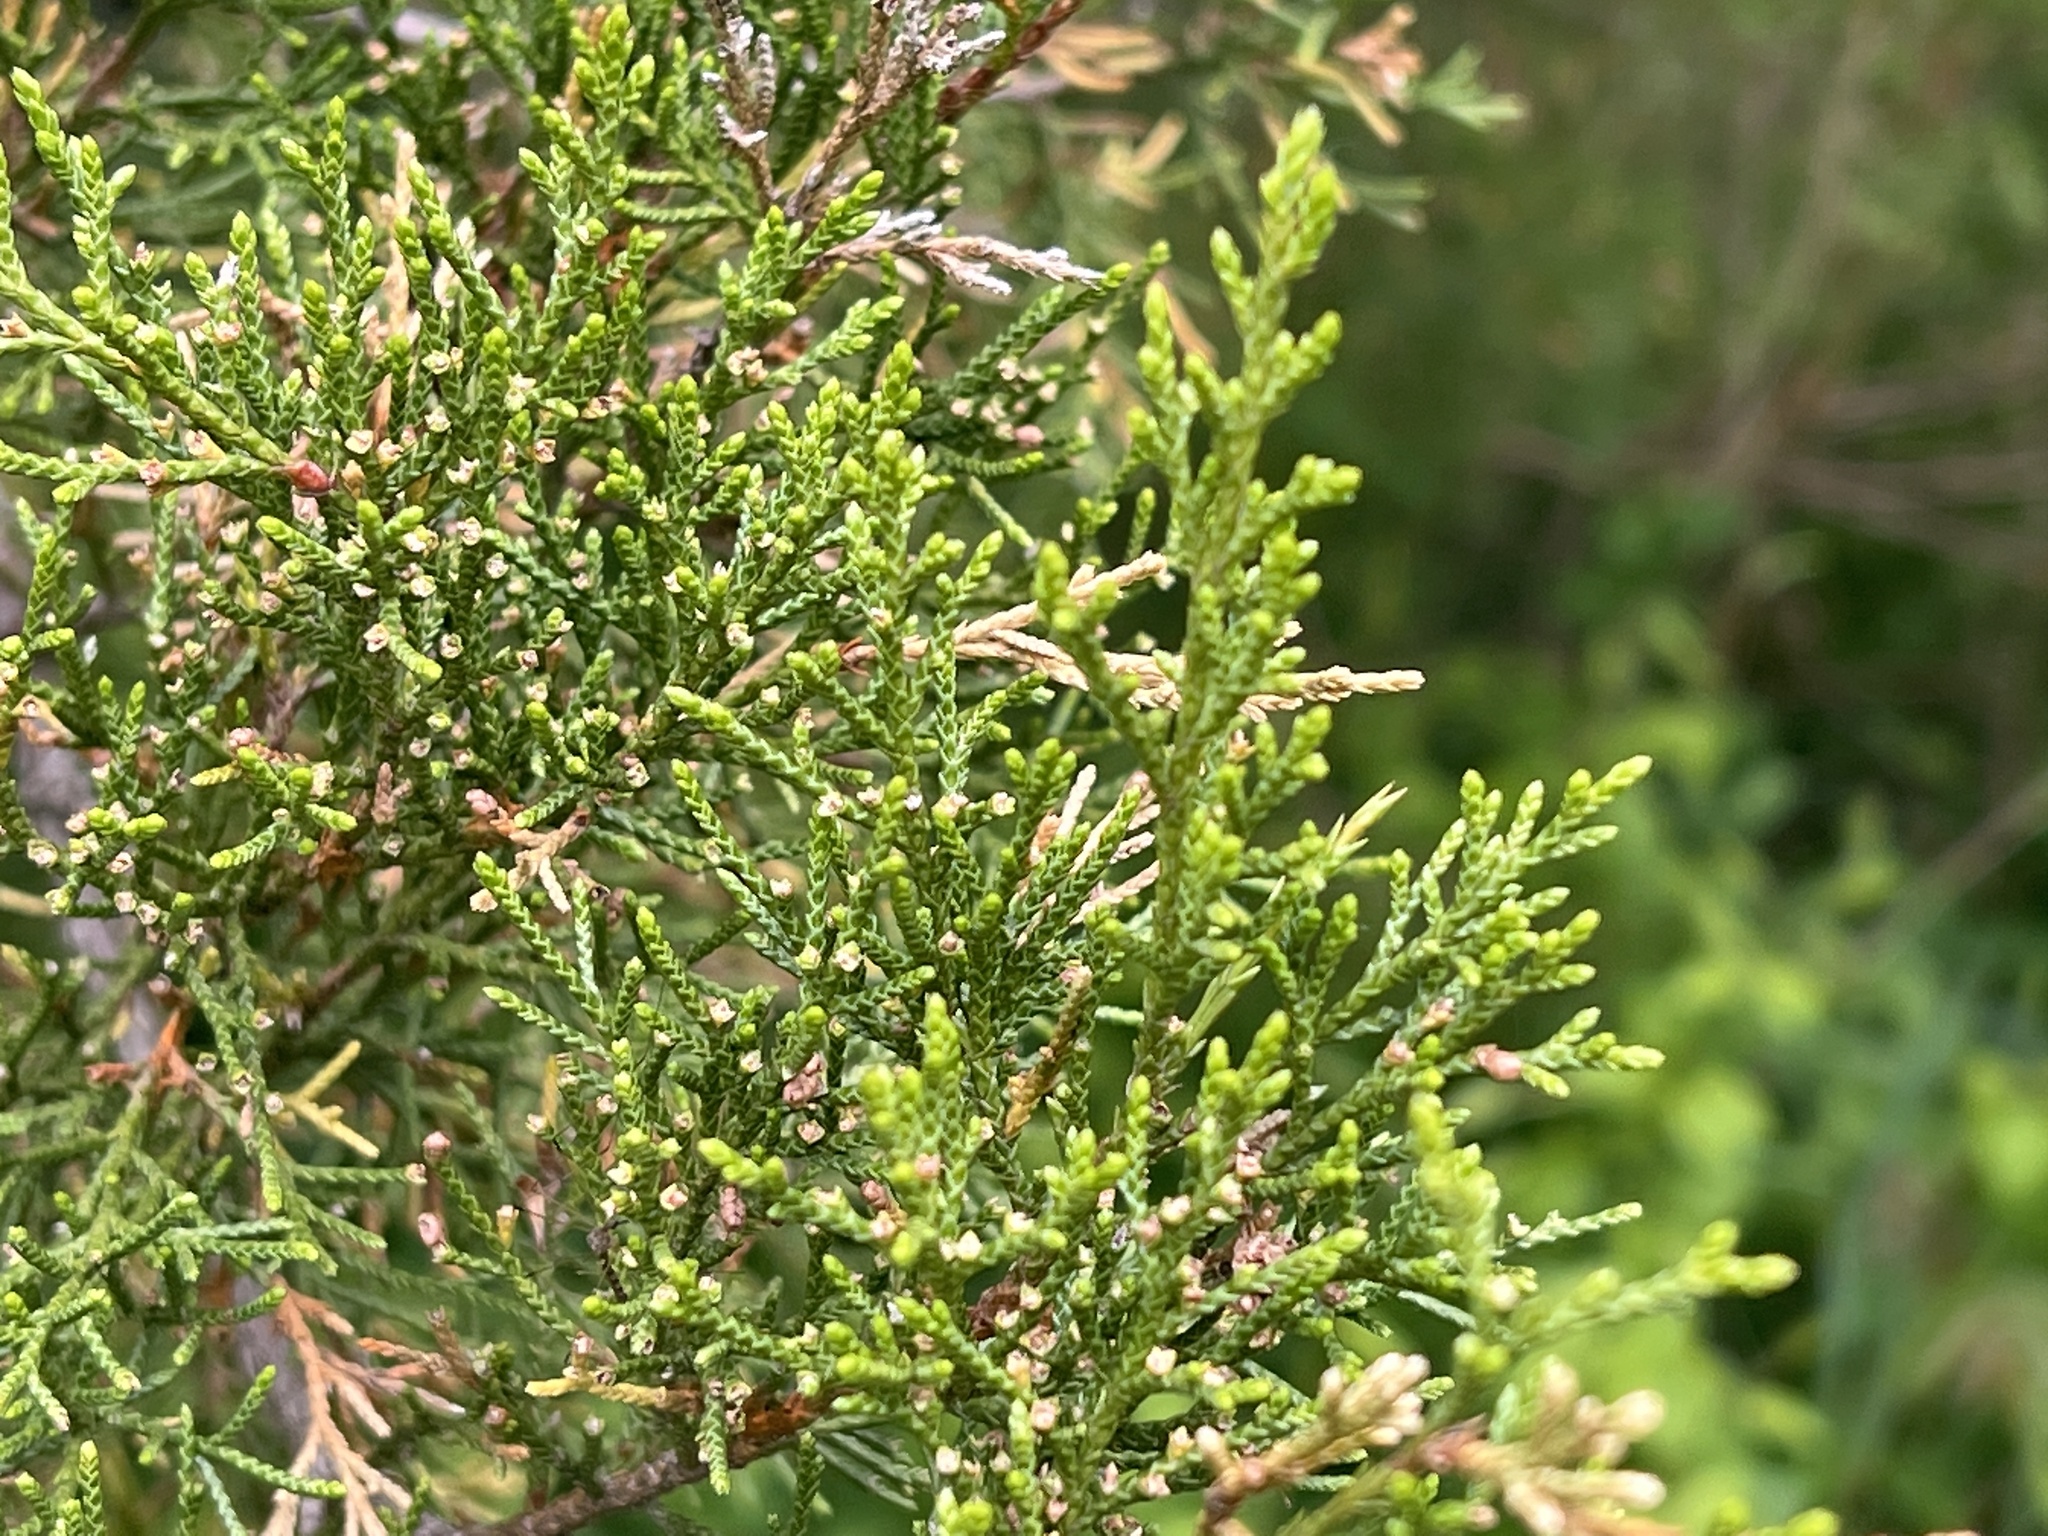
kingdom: Plantae
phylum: Tracheophyta
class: Pinopsida
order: Pinales
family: Cupressaceae
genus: Juniperus
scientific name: Juniperus virginiana
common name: Red juniper
